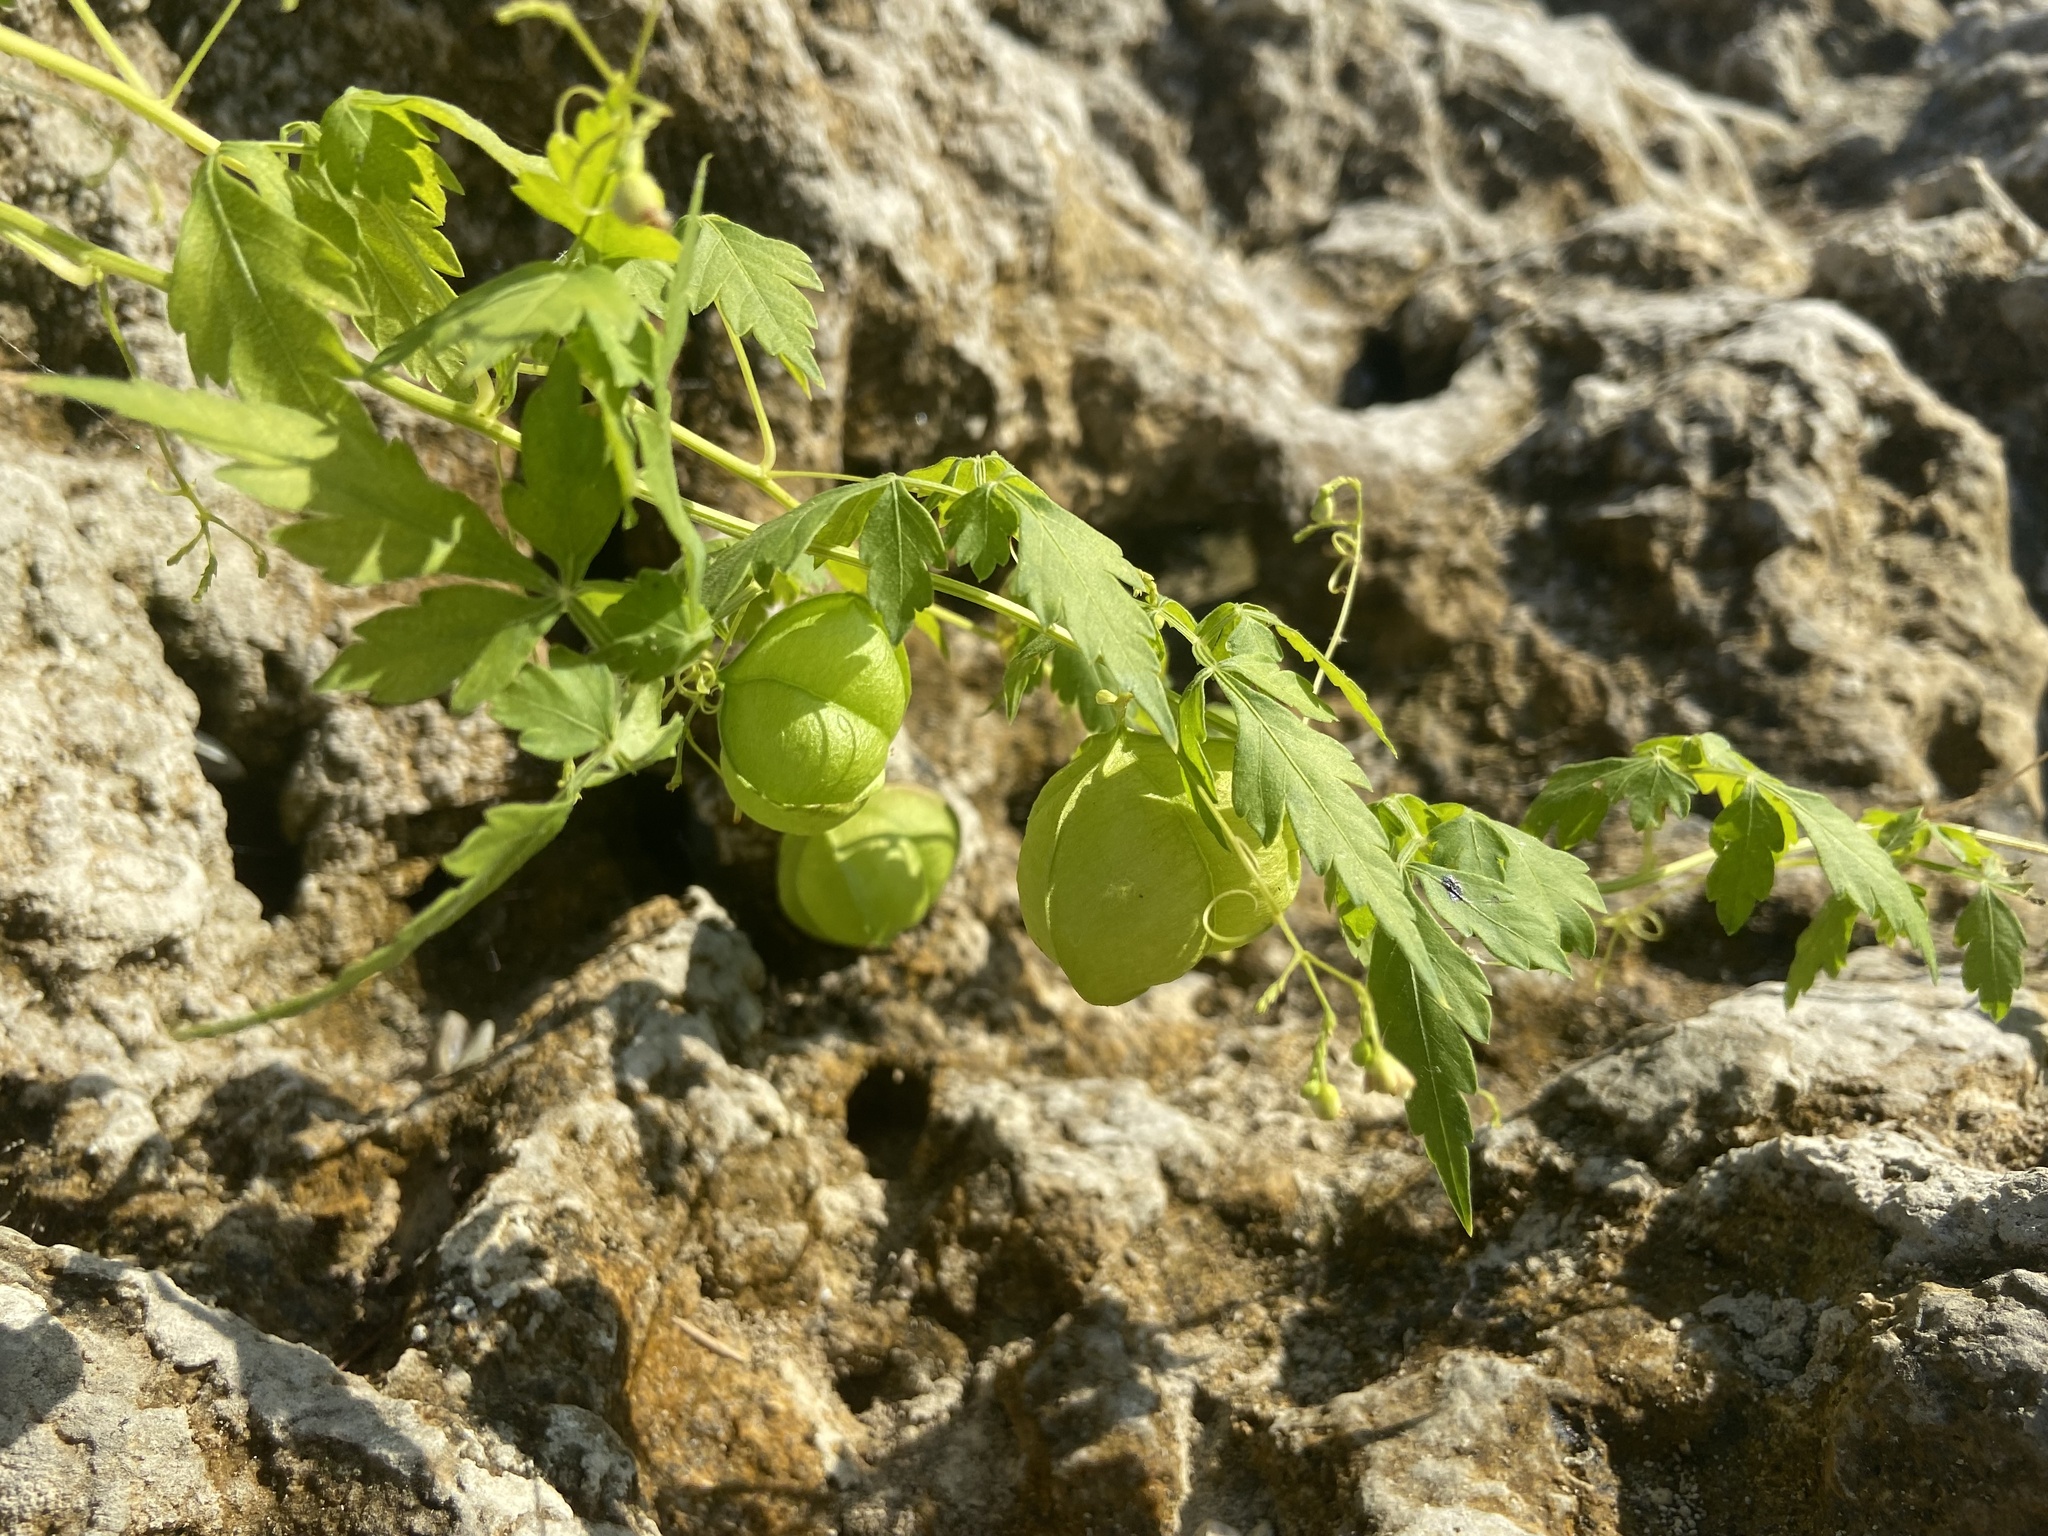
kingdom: Plantae
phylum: Tracheophyta
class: Magnoliopsida
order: Sapindales
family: Sapindaceae
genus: Cardiospermum
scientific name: Cardiospermum halicacabum
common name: Balloon vine
